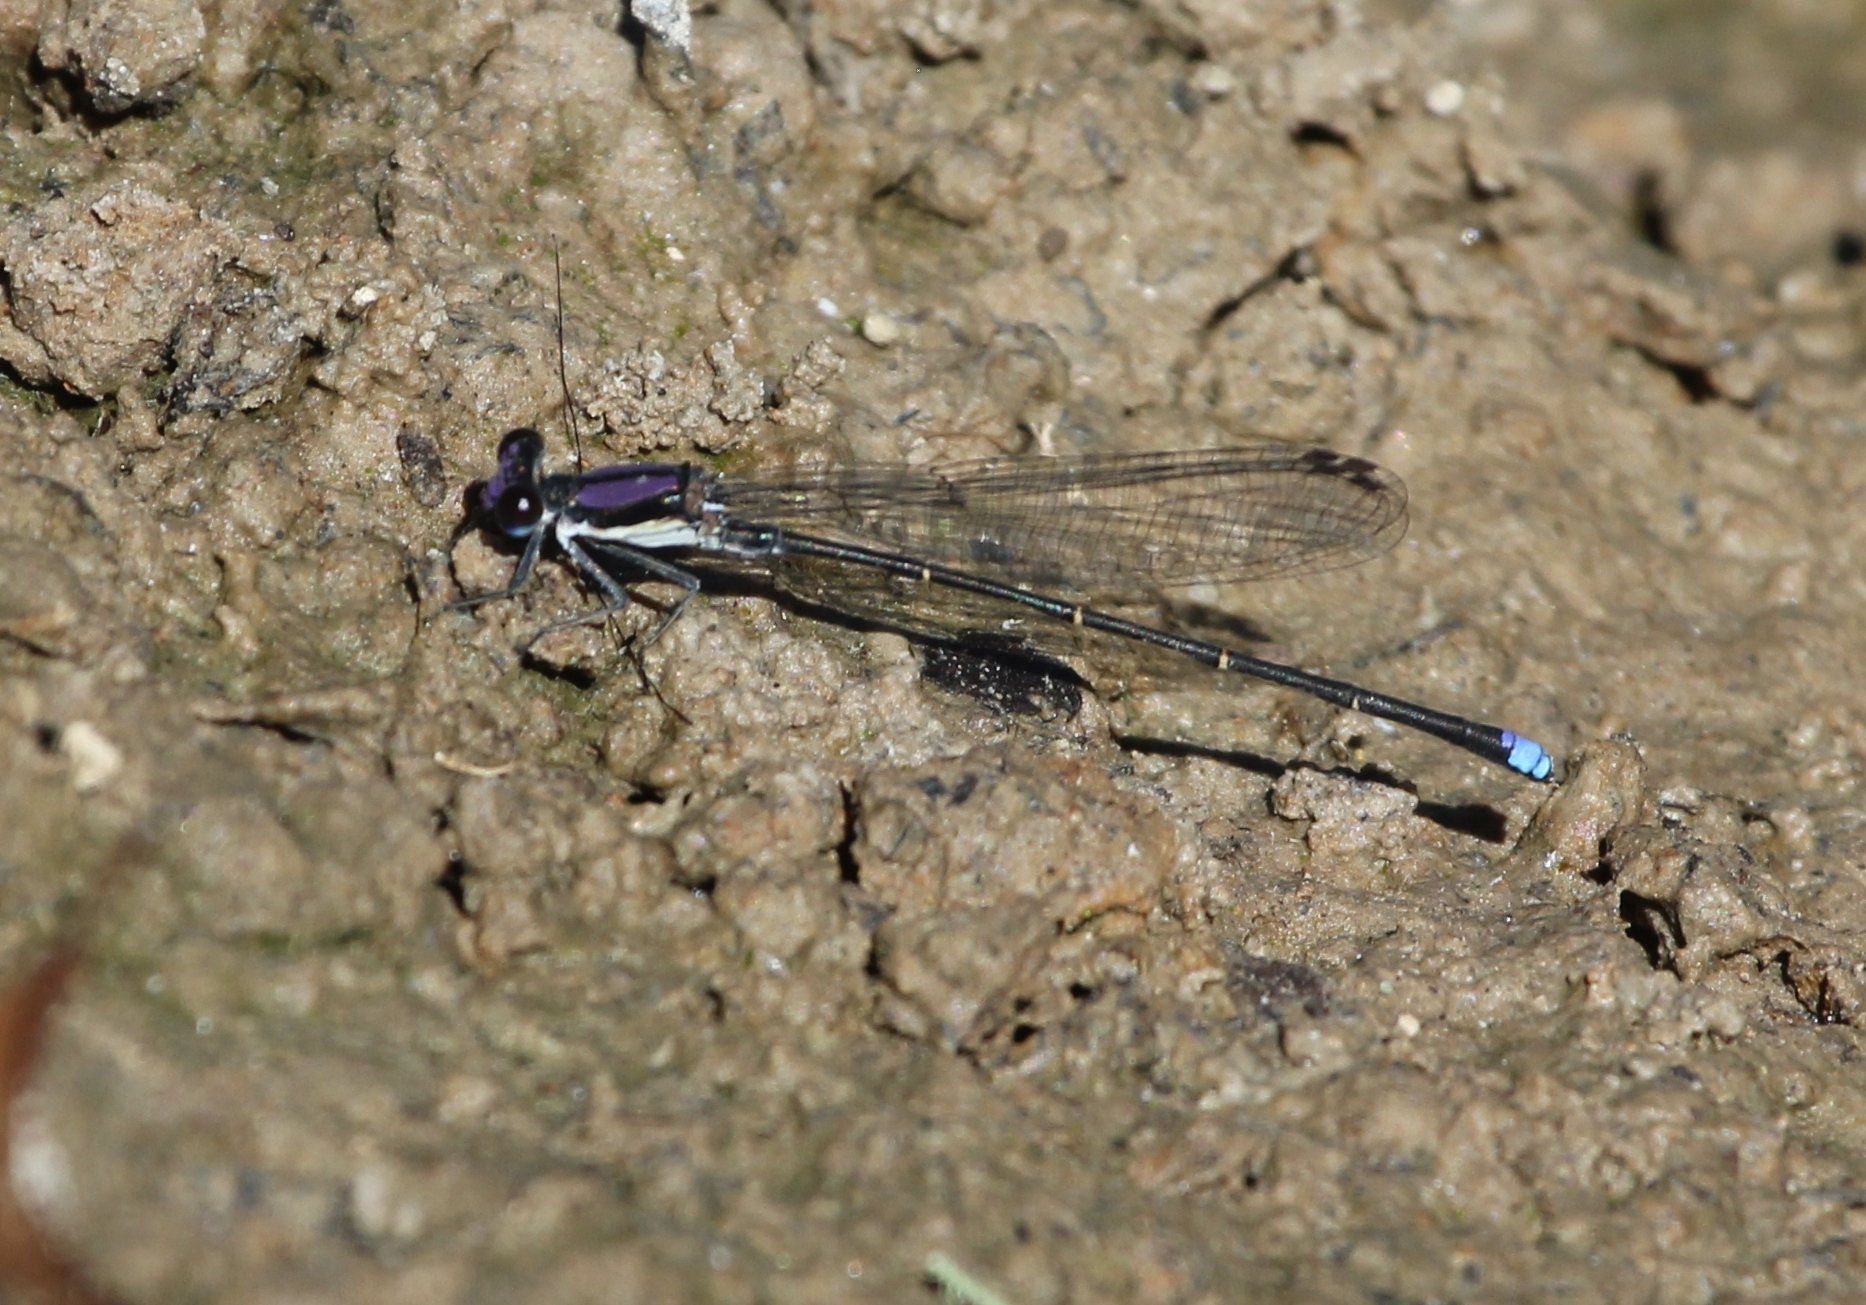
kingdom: Animalia
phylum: Arthropoda
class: Insecta
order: Odonata
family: Coenagrionidae
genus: Argia
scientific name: Argia tibialis
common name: Blue-tipped dancer
